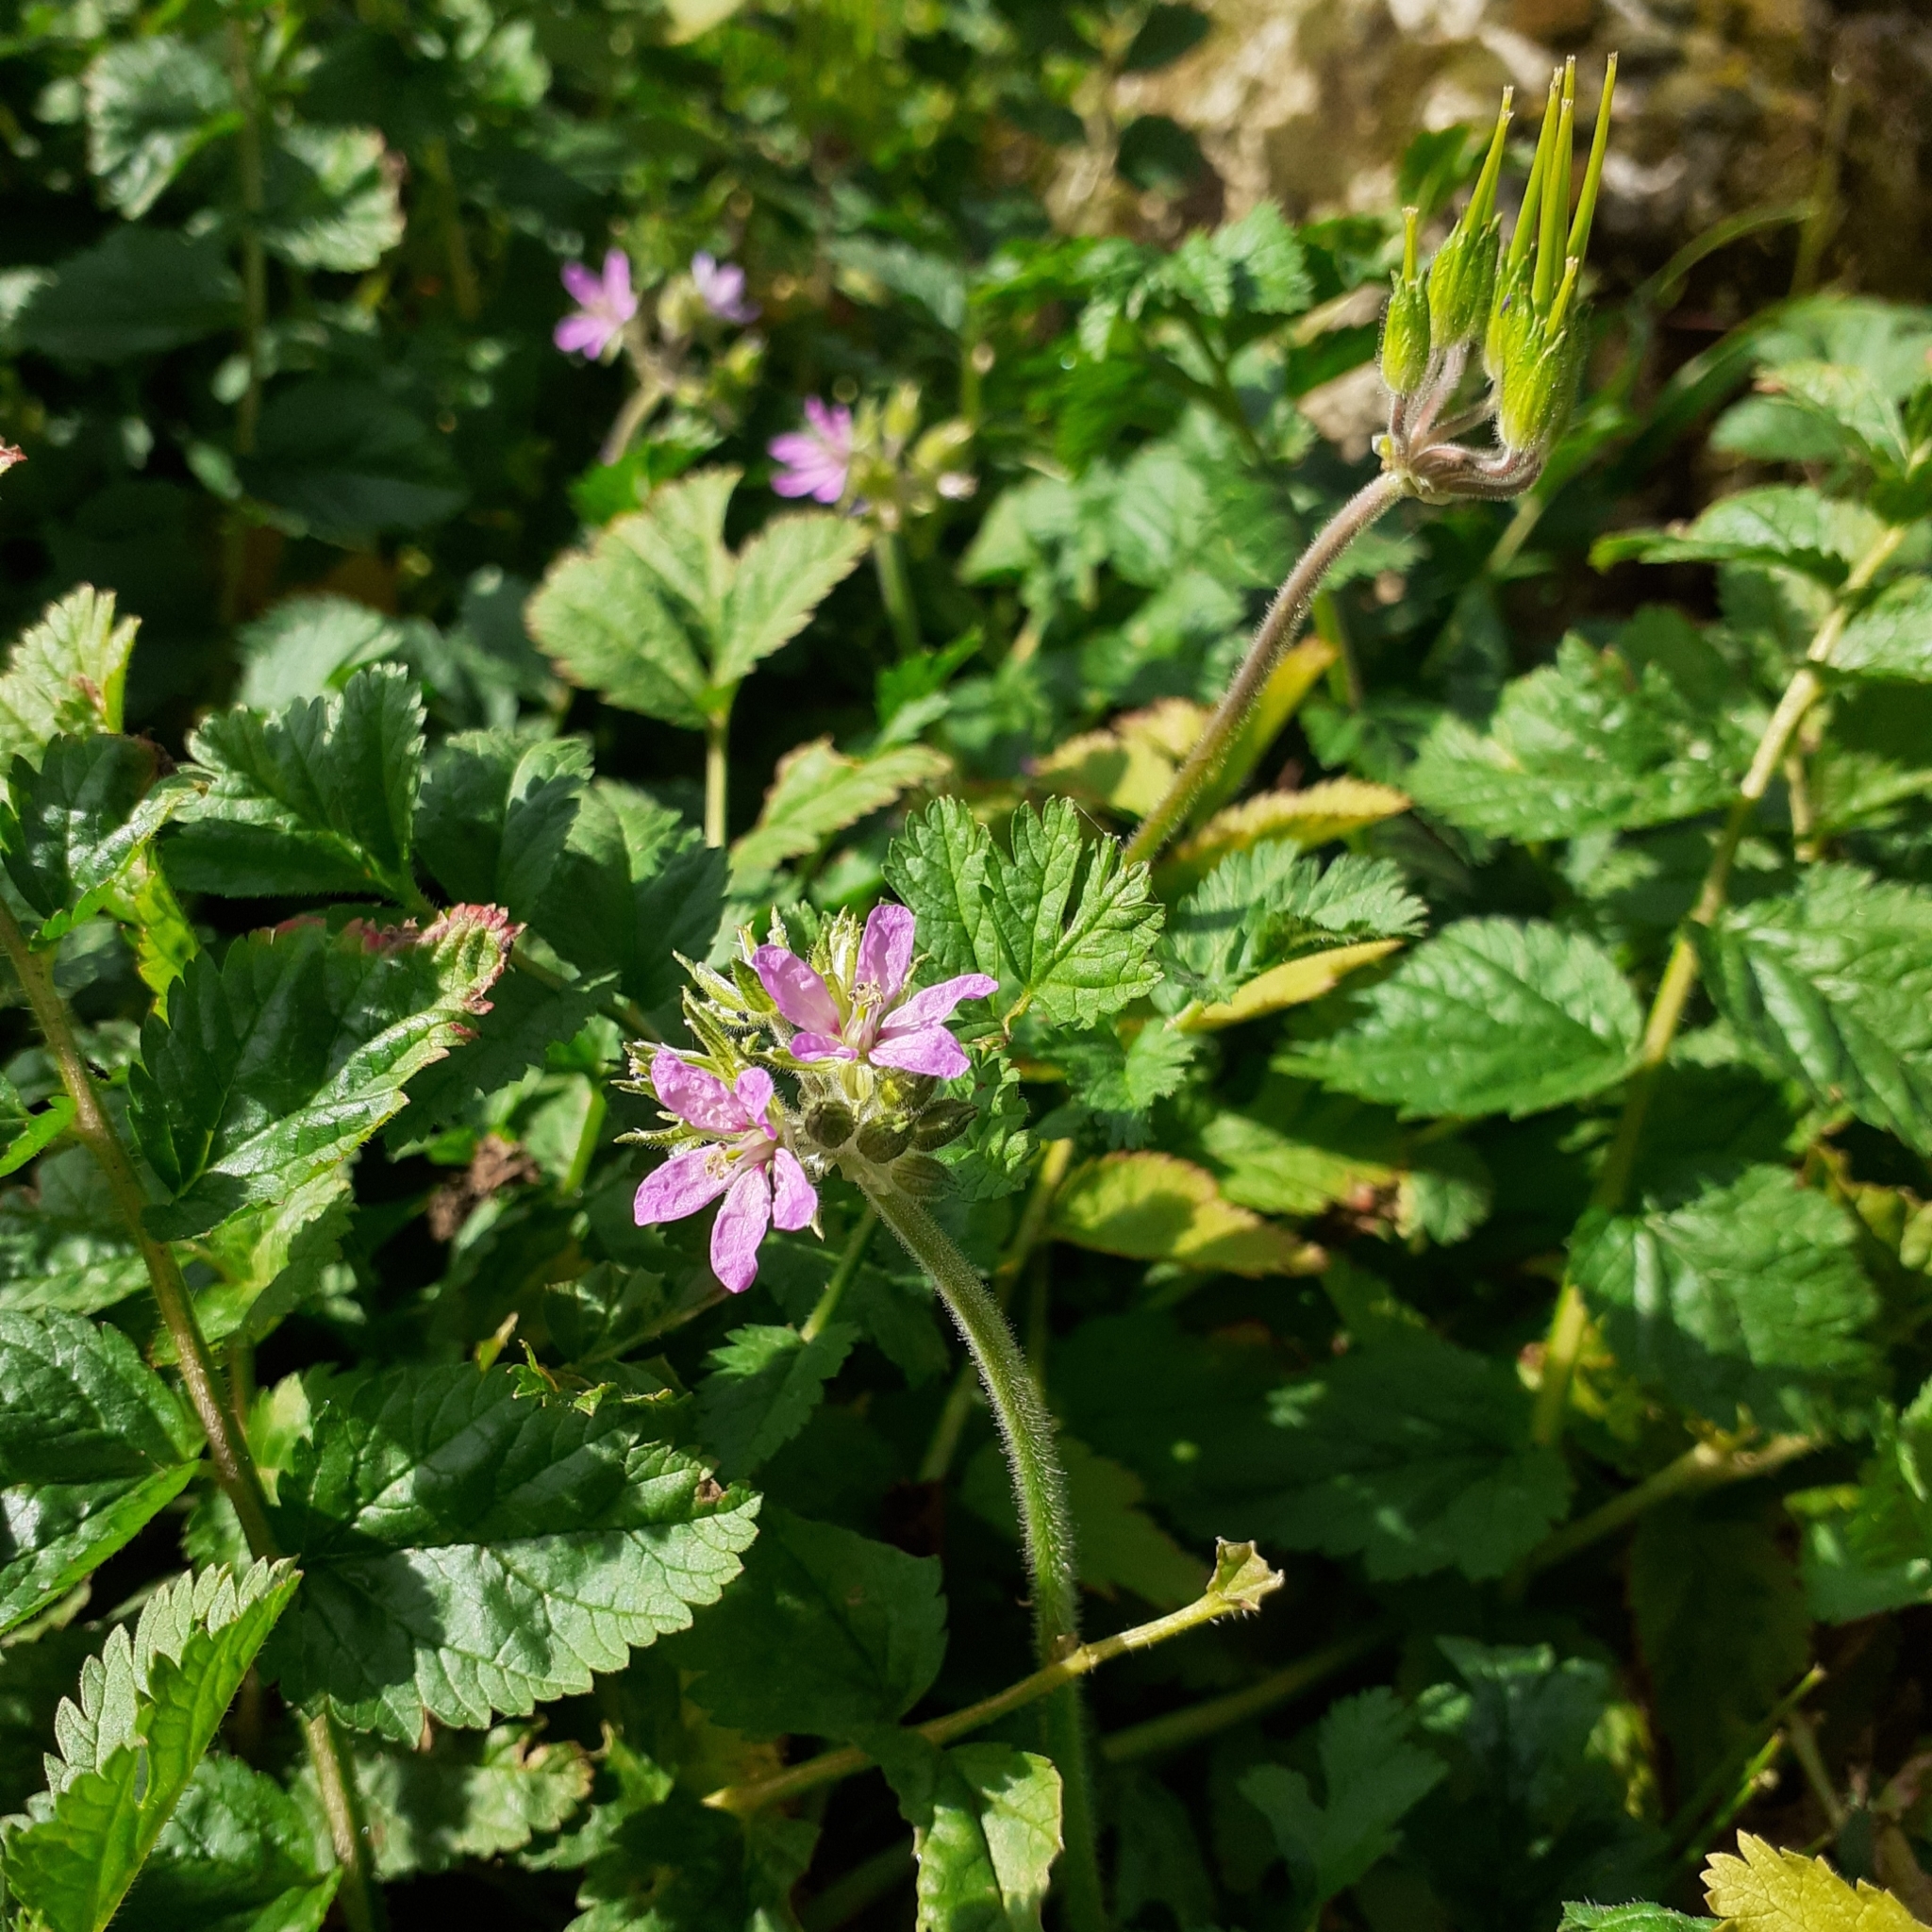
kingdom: Plantae
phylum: Tracheophyta
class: Magnoliopsida
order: Geraniales
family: Geraniaceae
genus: Erodium
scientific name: Erodium moschatum
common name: Musk stork's-bill
